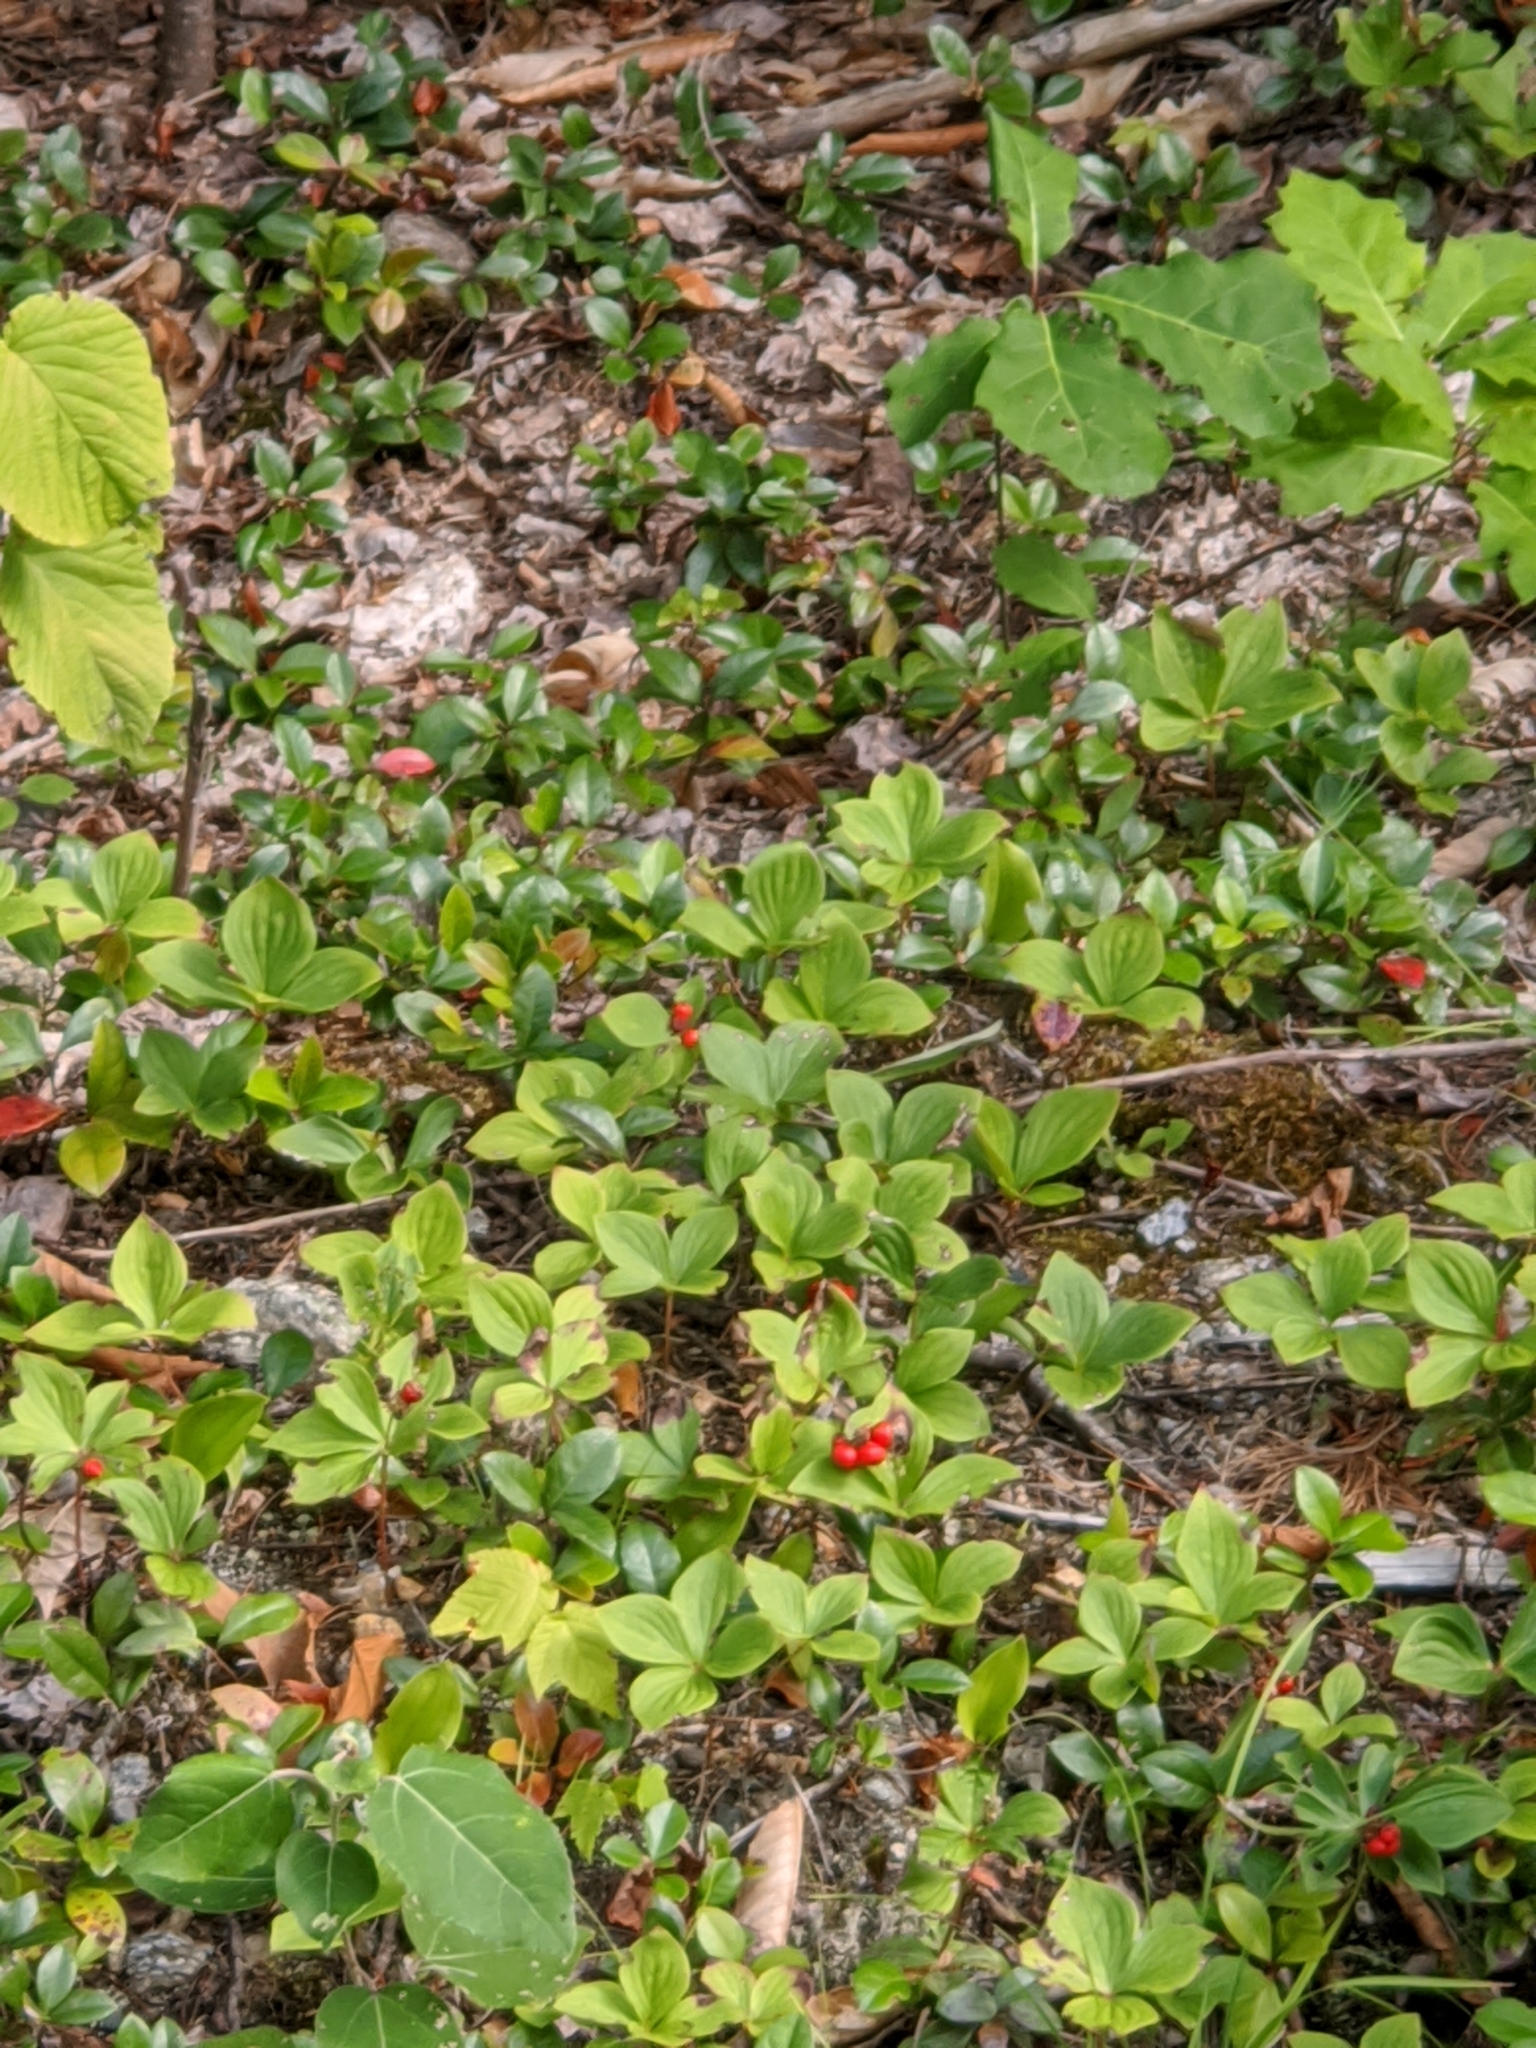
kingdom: Plantae
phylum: Tracheophyta
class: Magnoliopsida
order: Cornales
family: Cornaceae
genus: Cornus
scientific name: Cornus canadensis
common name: Creeping dogwood
